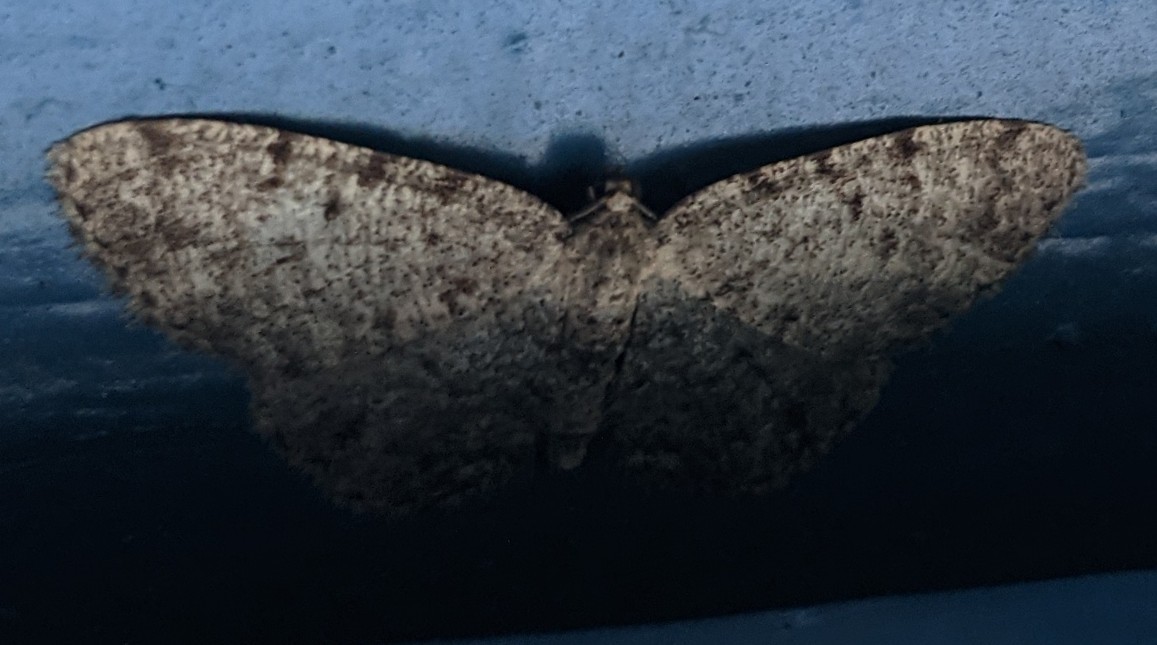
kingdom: Animalia
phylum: Arthropoda
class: Insecta
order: Lepidoptera
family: Geometridae
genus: Aethalura
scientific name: Aethalura intertexta
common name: Four-barred gray
